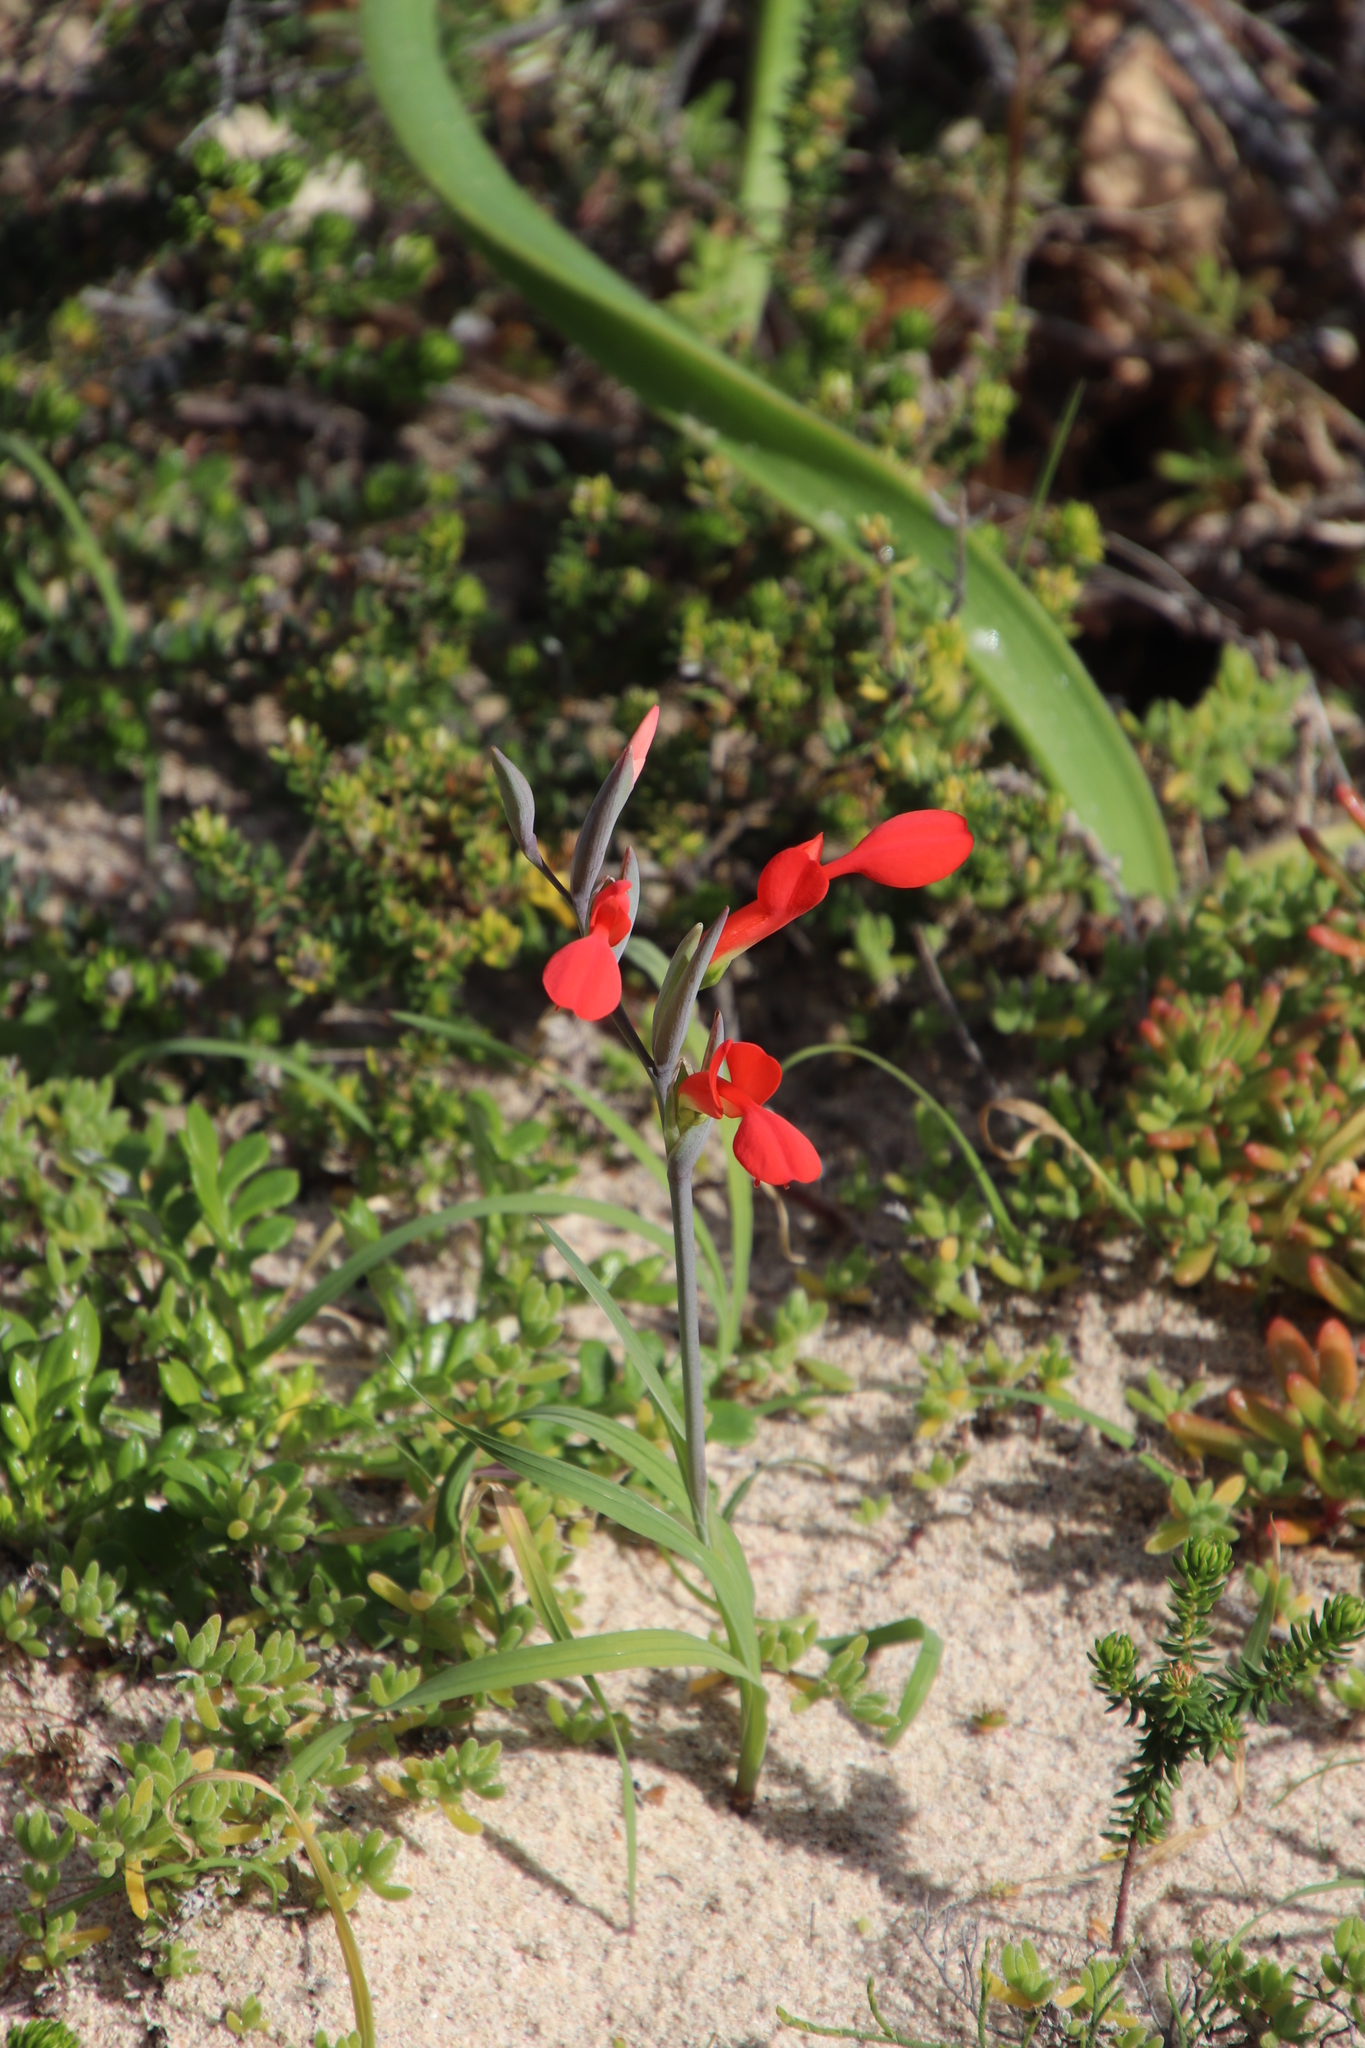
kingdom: Plantae
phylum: Tracheophyta
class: Liliopsida
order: Asparagales
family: Iridaceae
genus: Gladiolus
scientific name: Gladiolus cunonius
